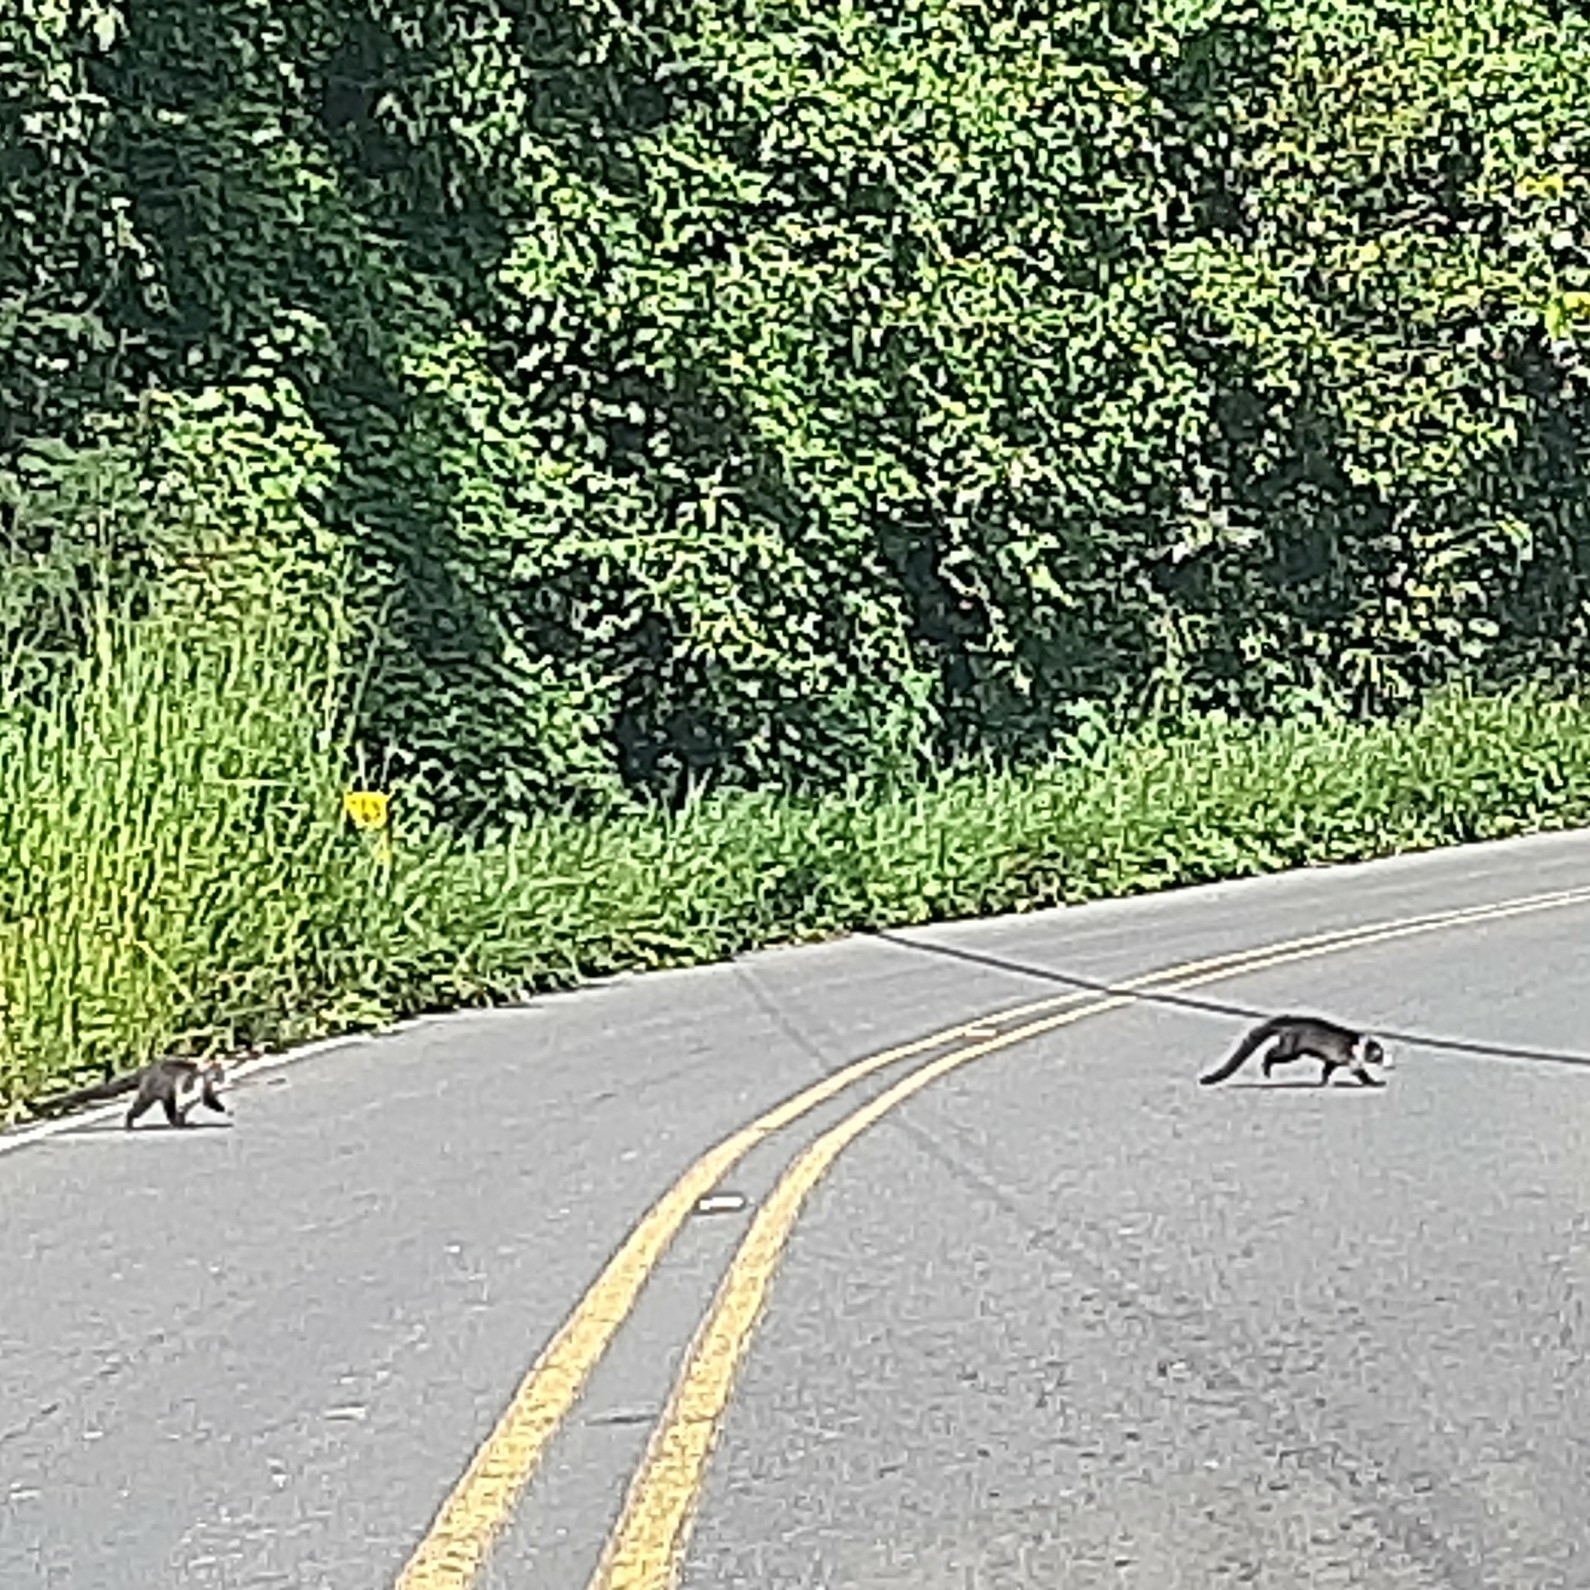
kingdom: Animalia
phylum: Chordata
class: Mammalia
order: Carnivora
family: Procyonidae
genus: Nasua
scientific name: Nasua narica
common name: White-nosed coati
